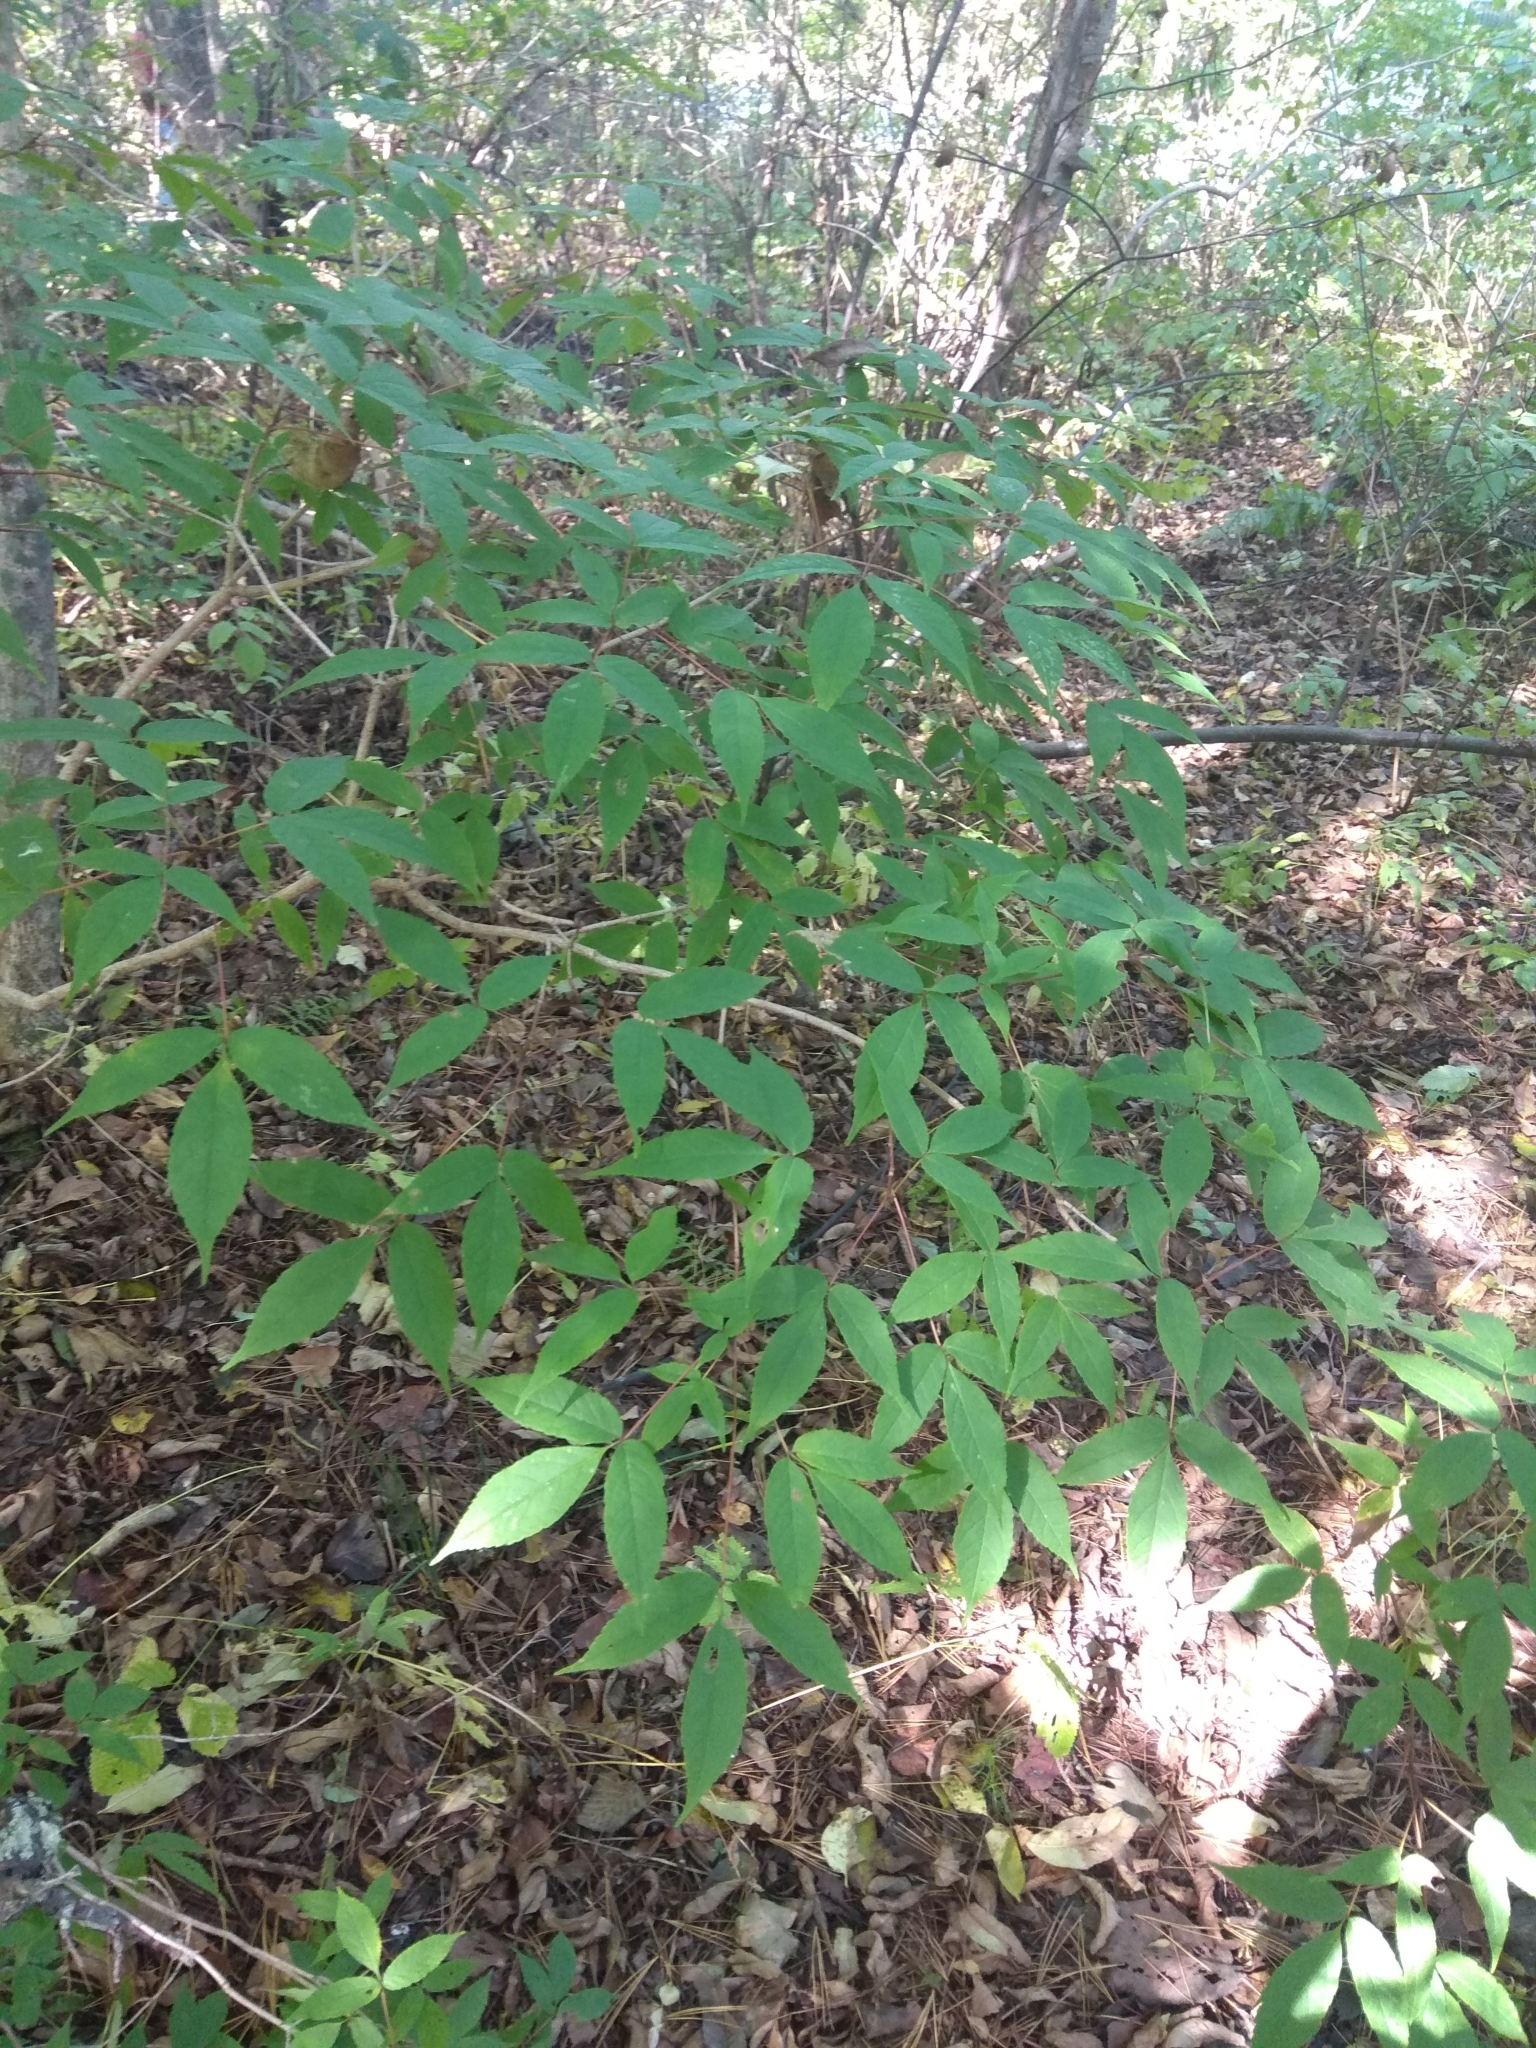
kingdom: Plantae
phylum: Tracheophyta
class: Magnoliopsida
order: Sapindales
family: Sapindaceae
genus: Acer
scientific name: Acer mandshuricum
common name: Manchurian maple
